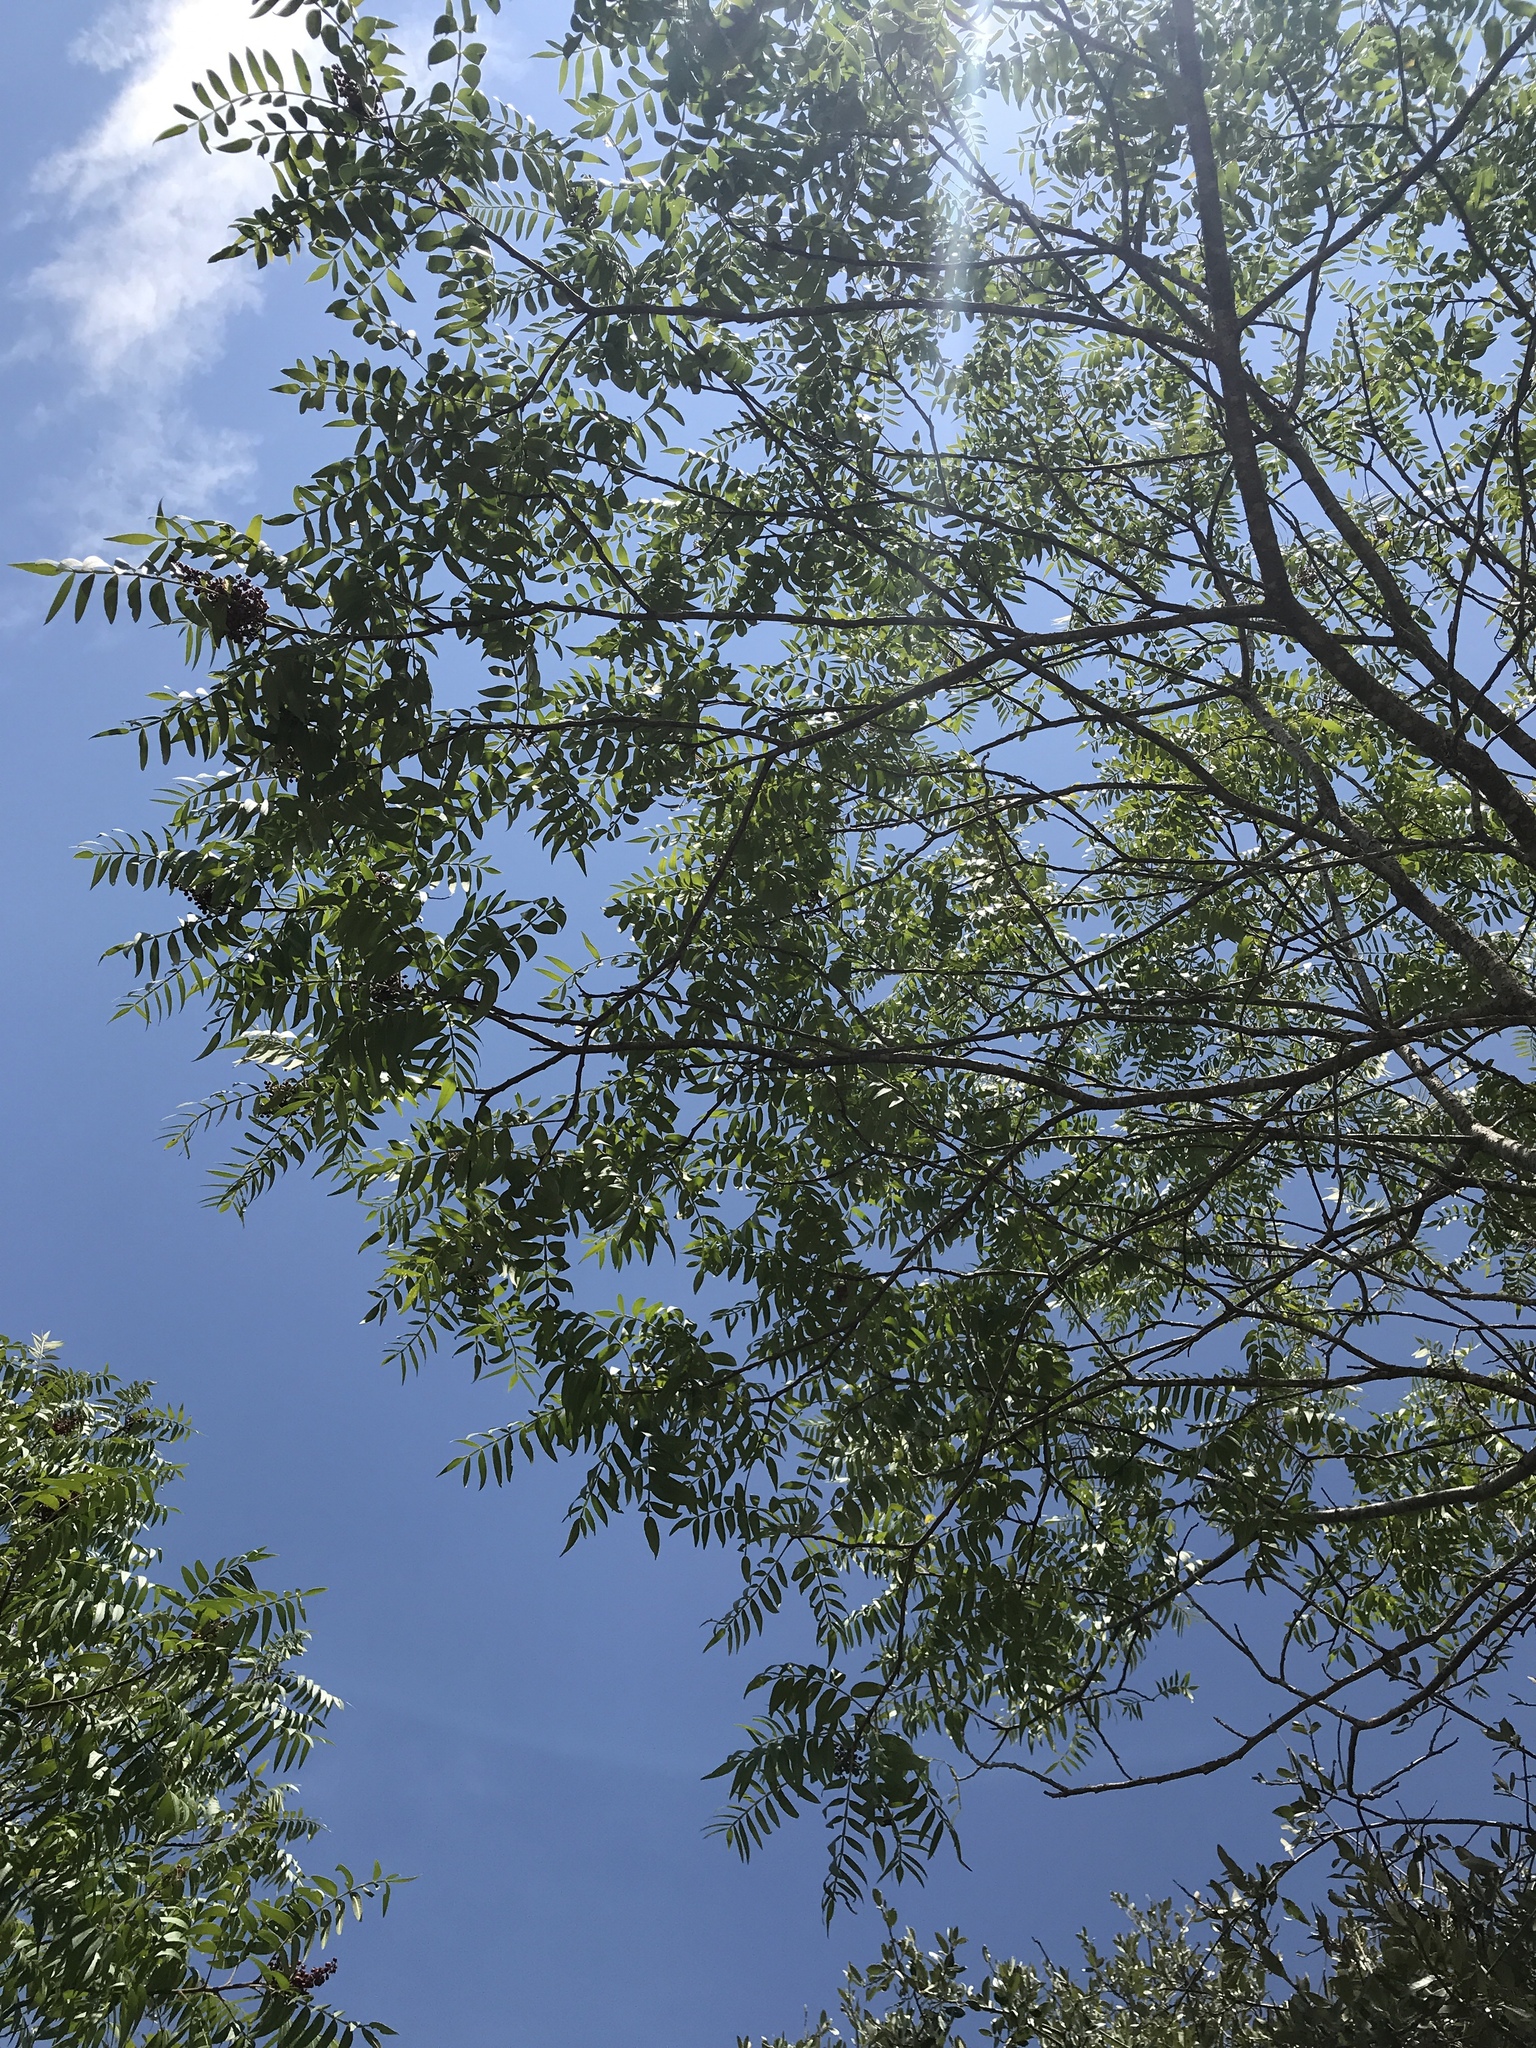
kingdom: Plantae
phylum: Tracheophyta
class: Magnoliopsida
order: Sapindales
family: Anacardiaceae
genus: Rhus
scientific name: Rhus lanceolata
